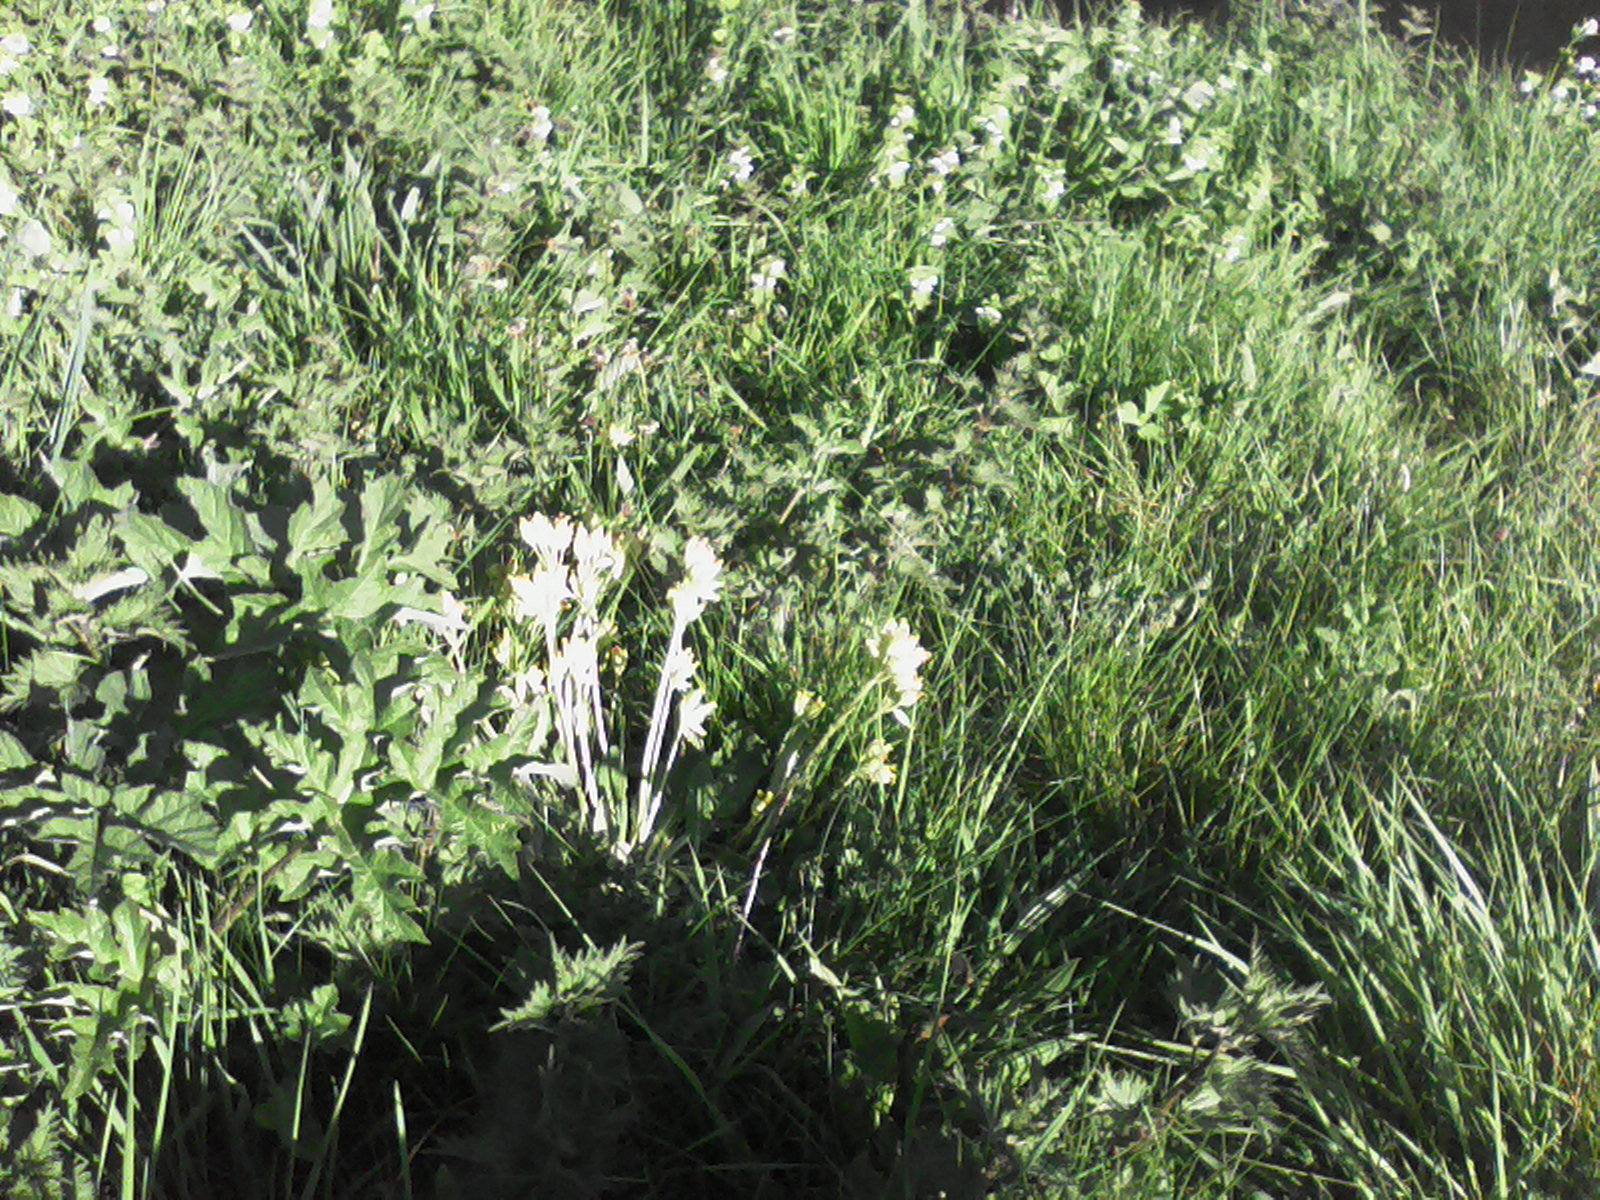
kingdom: Plantae
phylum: Tracheophyta
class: Magnoliopsida
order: Ericales
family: Primulaceae
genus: Primula
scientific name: Primula veris
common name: Cowslip
